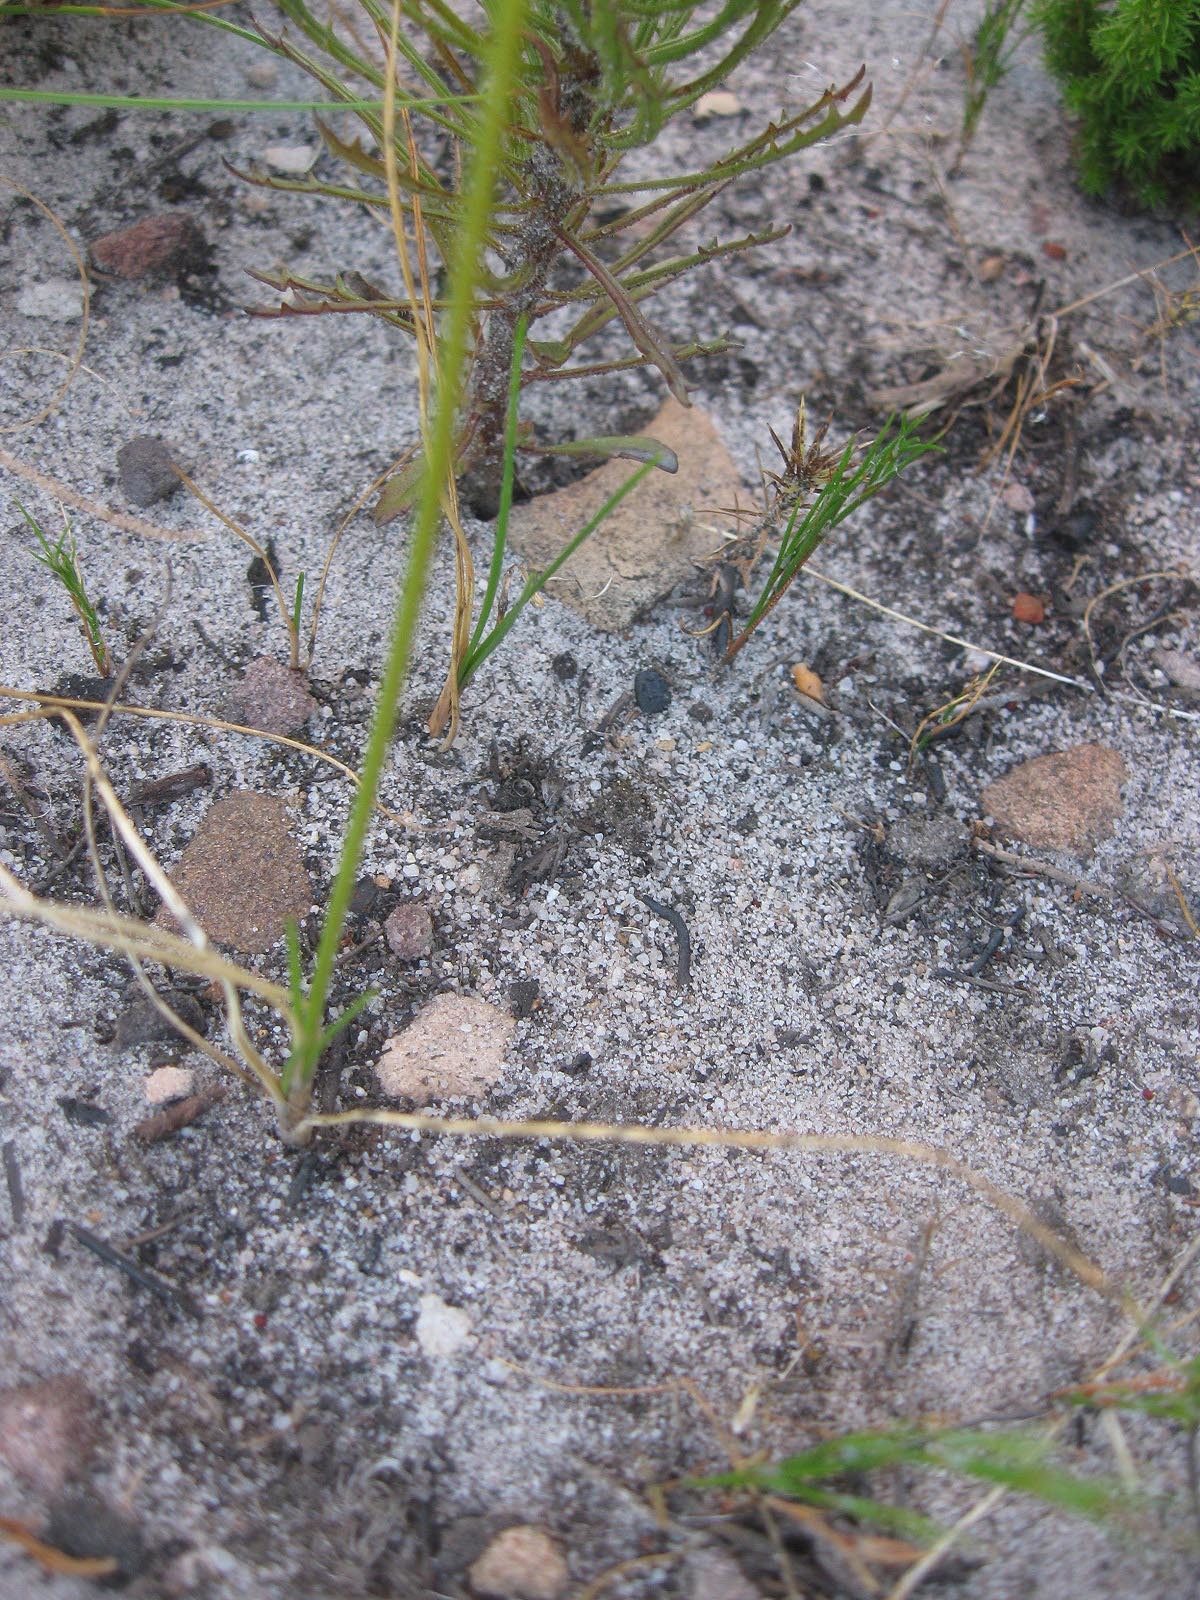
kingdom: Plantae
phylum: Tracheophyta
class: Liliopsida
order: Asparagales
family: Asphodelaceae
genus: Bulbinella
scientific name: Bulbinella trinervis
